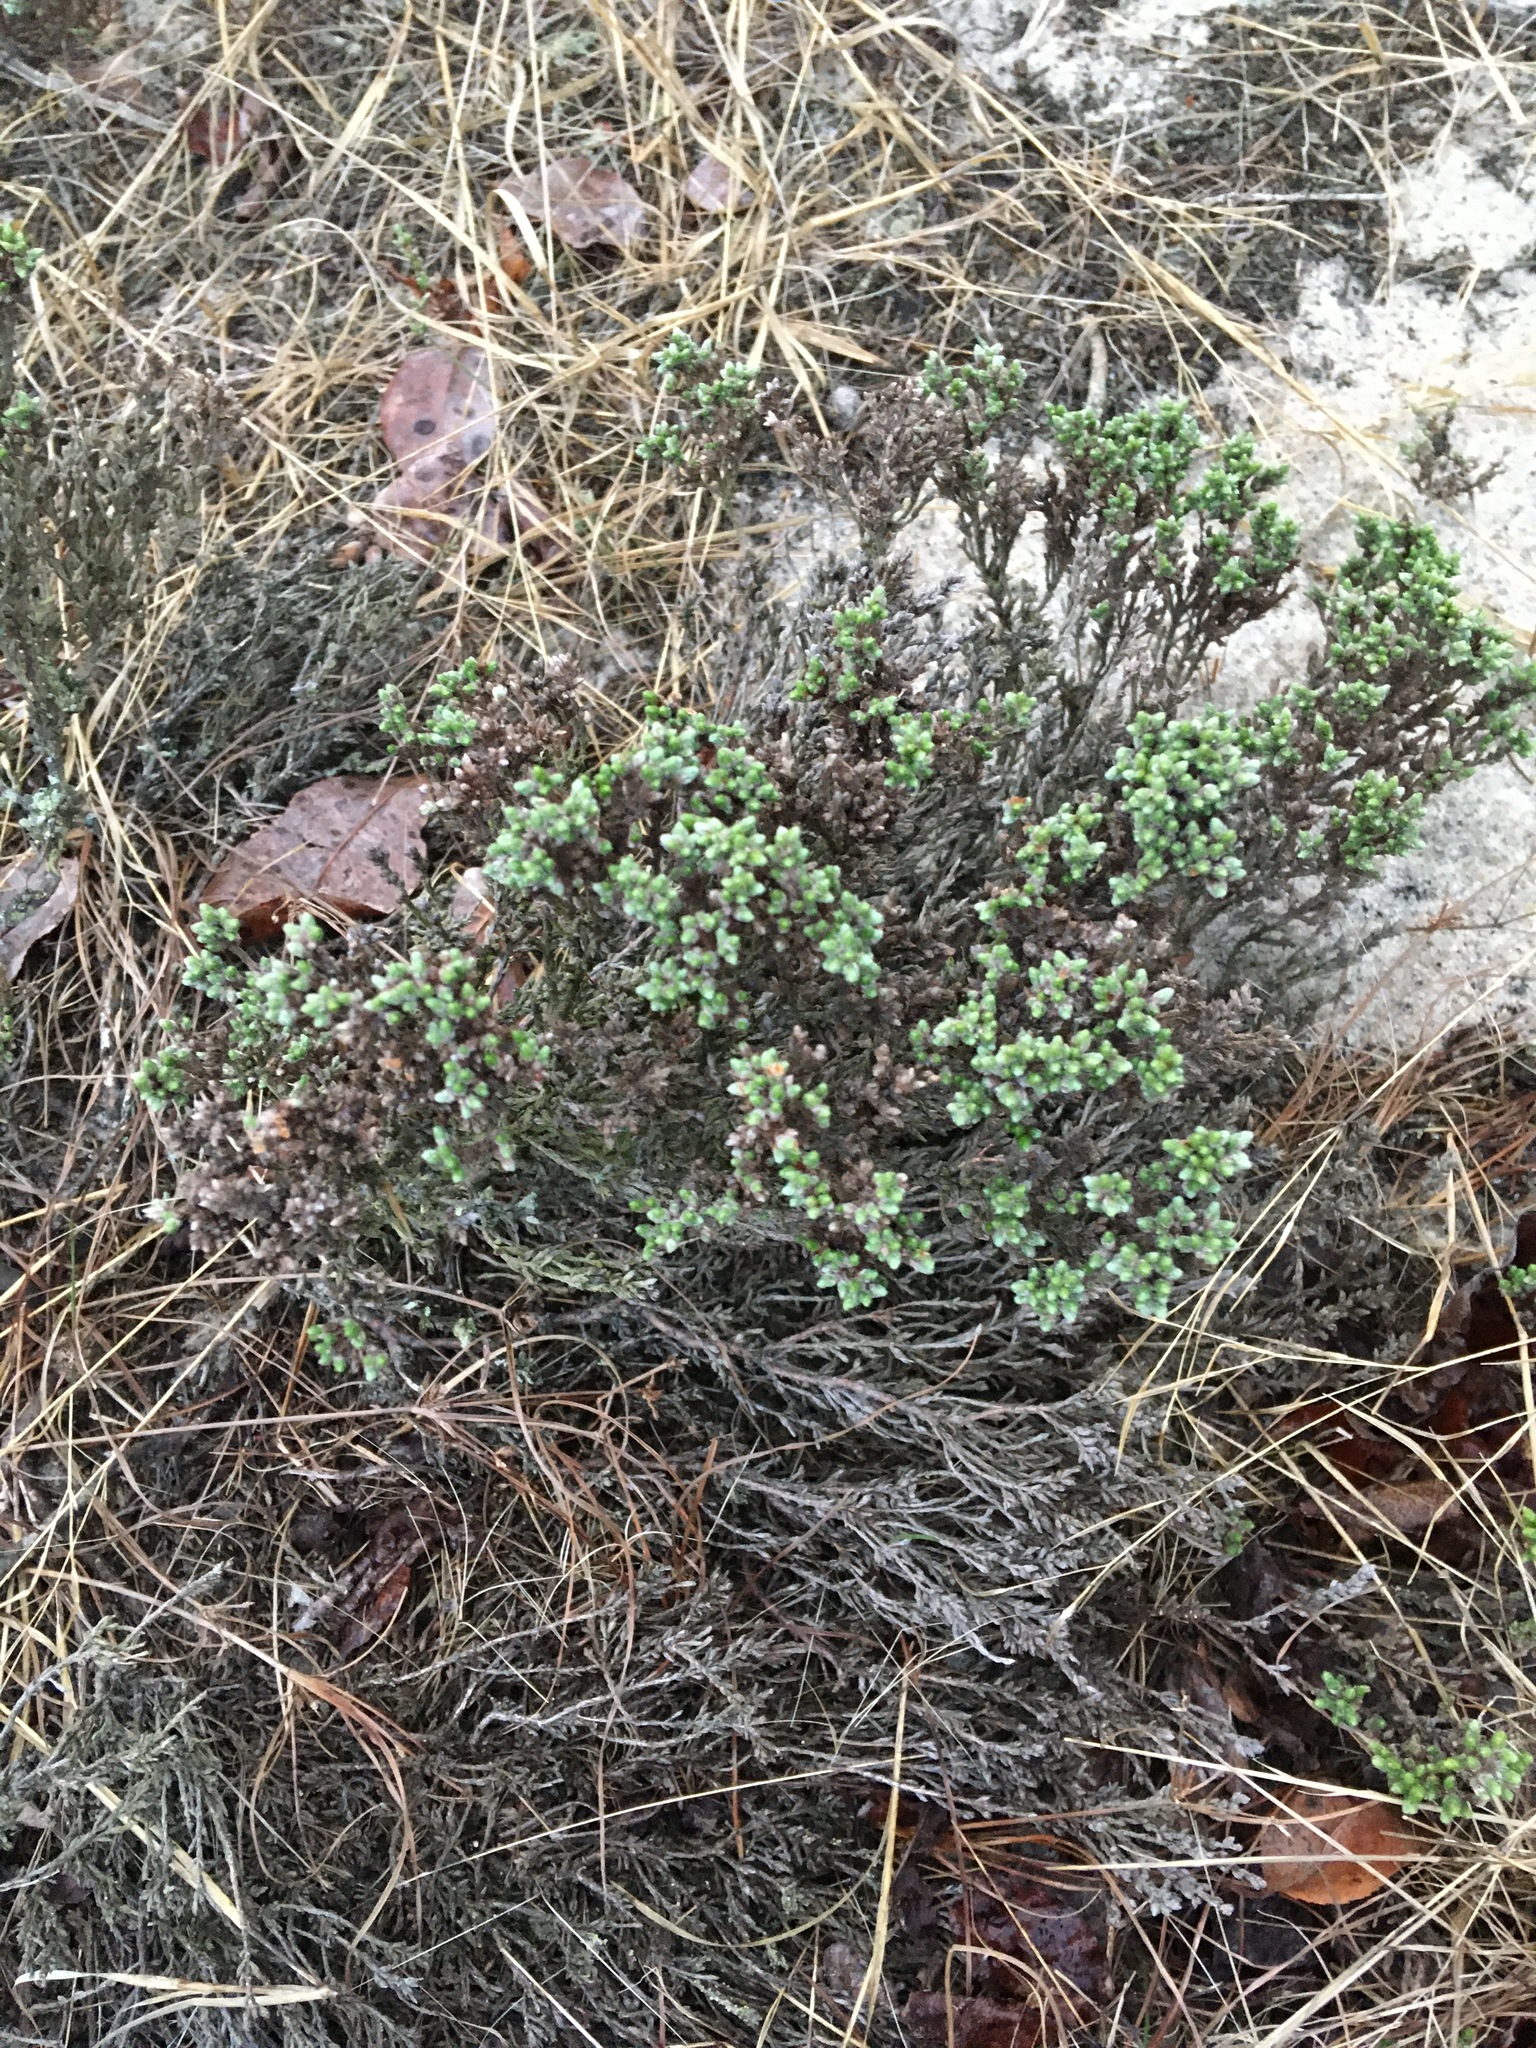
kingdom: Plantae
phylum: Tracheophyta
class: Magnoliopsida
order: Malvales
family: Cistaceae
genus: Hudsonia
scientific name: Hudsonia tomentosa
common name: Beach-heath
